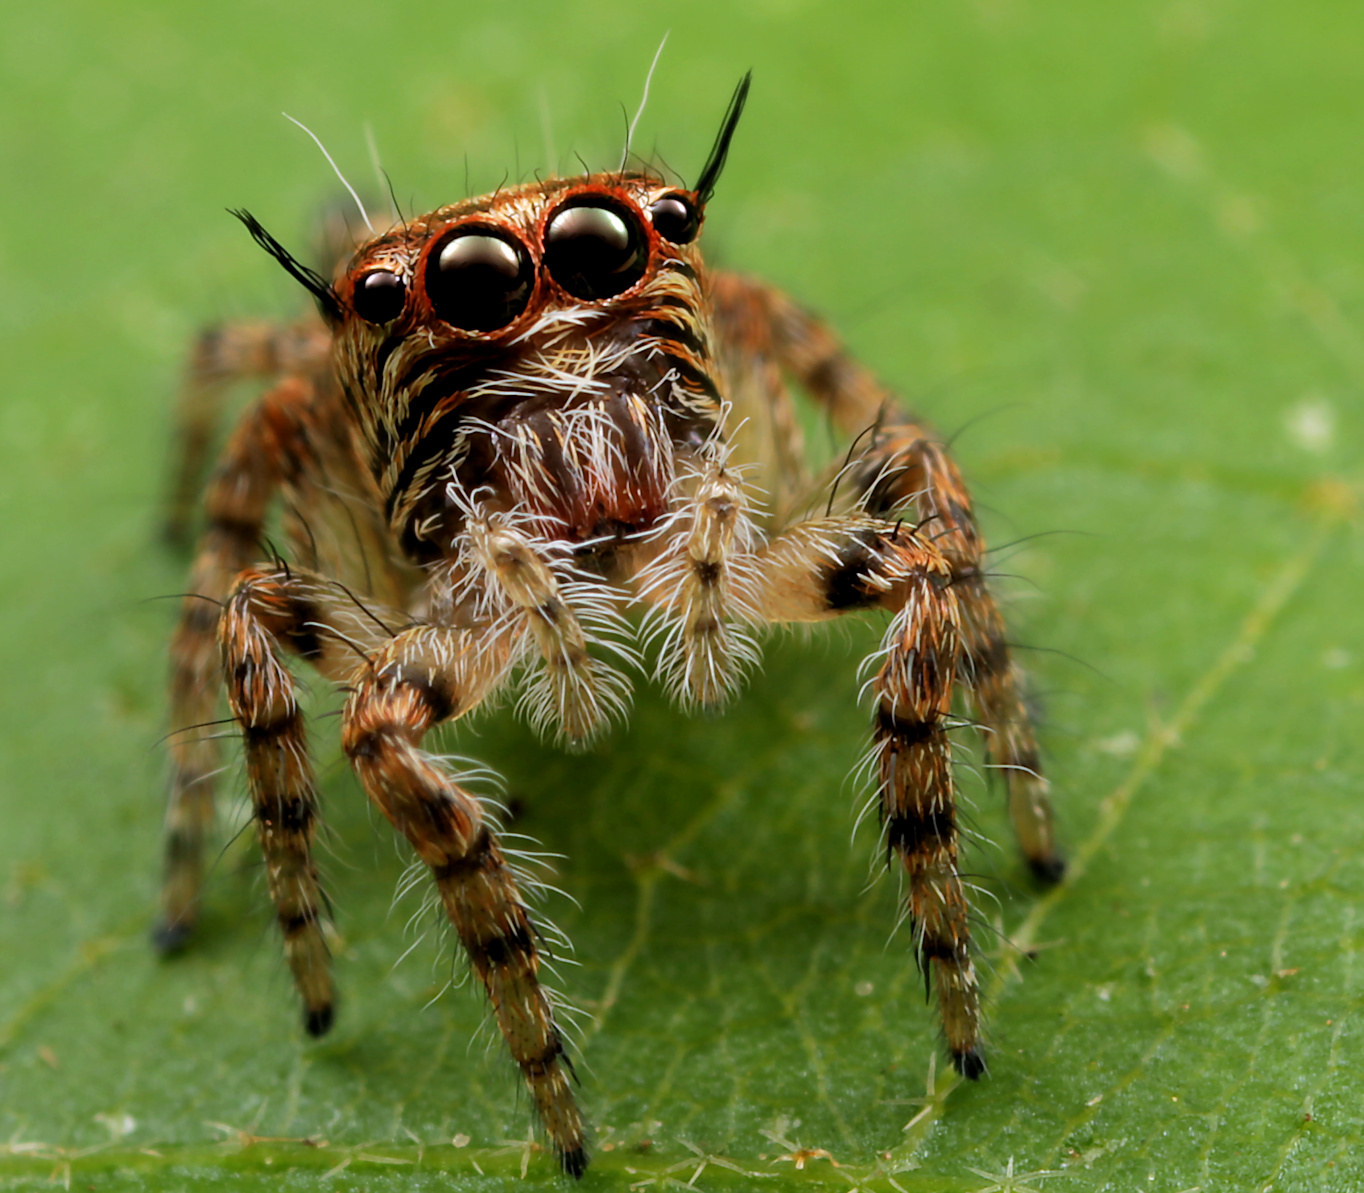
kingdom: Animalia
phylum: Arthropoda
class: Arachnida
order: Araneae
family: Salticidae
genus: Hyllus
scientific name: Hyllus treleaveni
